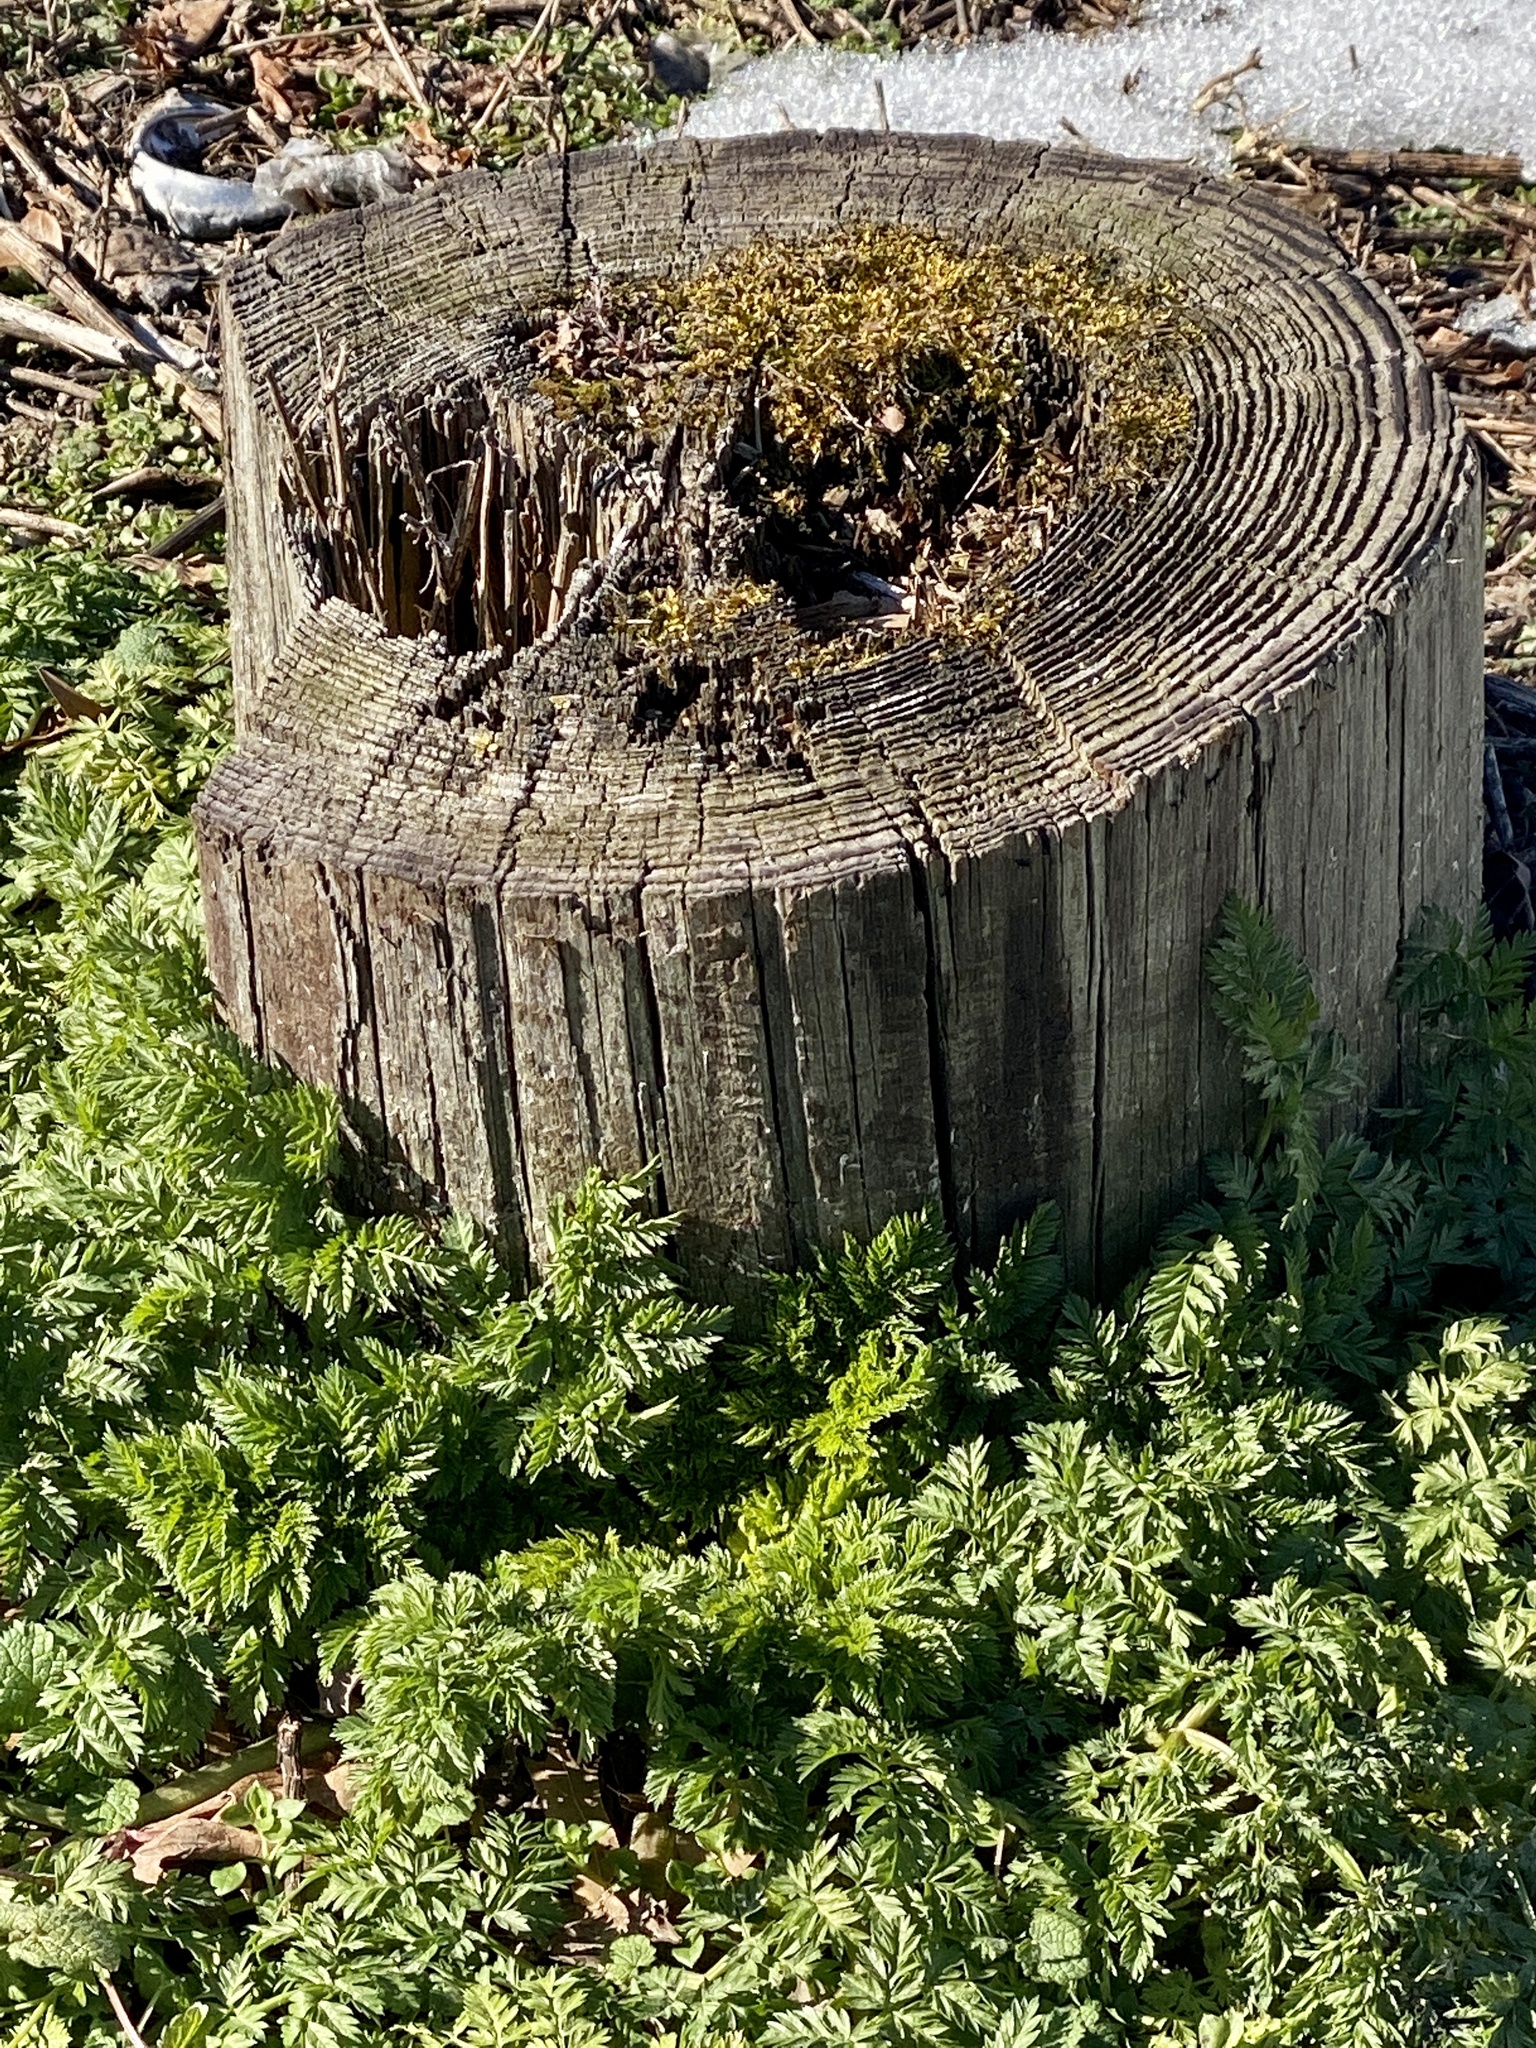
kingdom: Plantae
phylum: Tracheophyta
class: Magnoliopsida
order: Apiales
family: Apiaceae
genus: Conium
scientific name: Conium maculatum
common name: Hemlock
